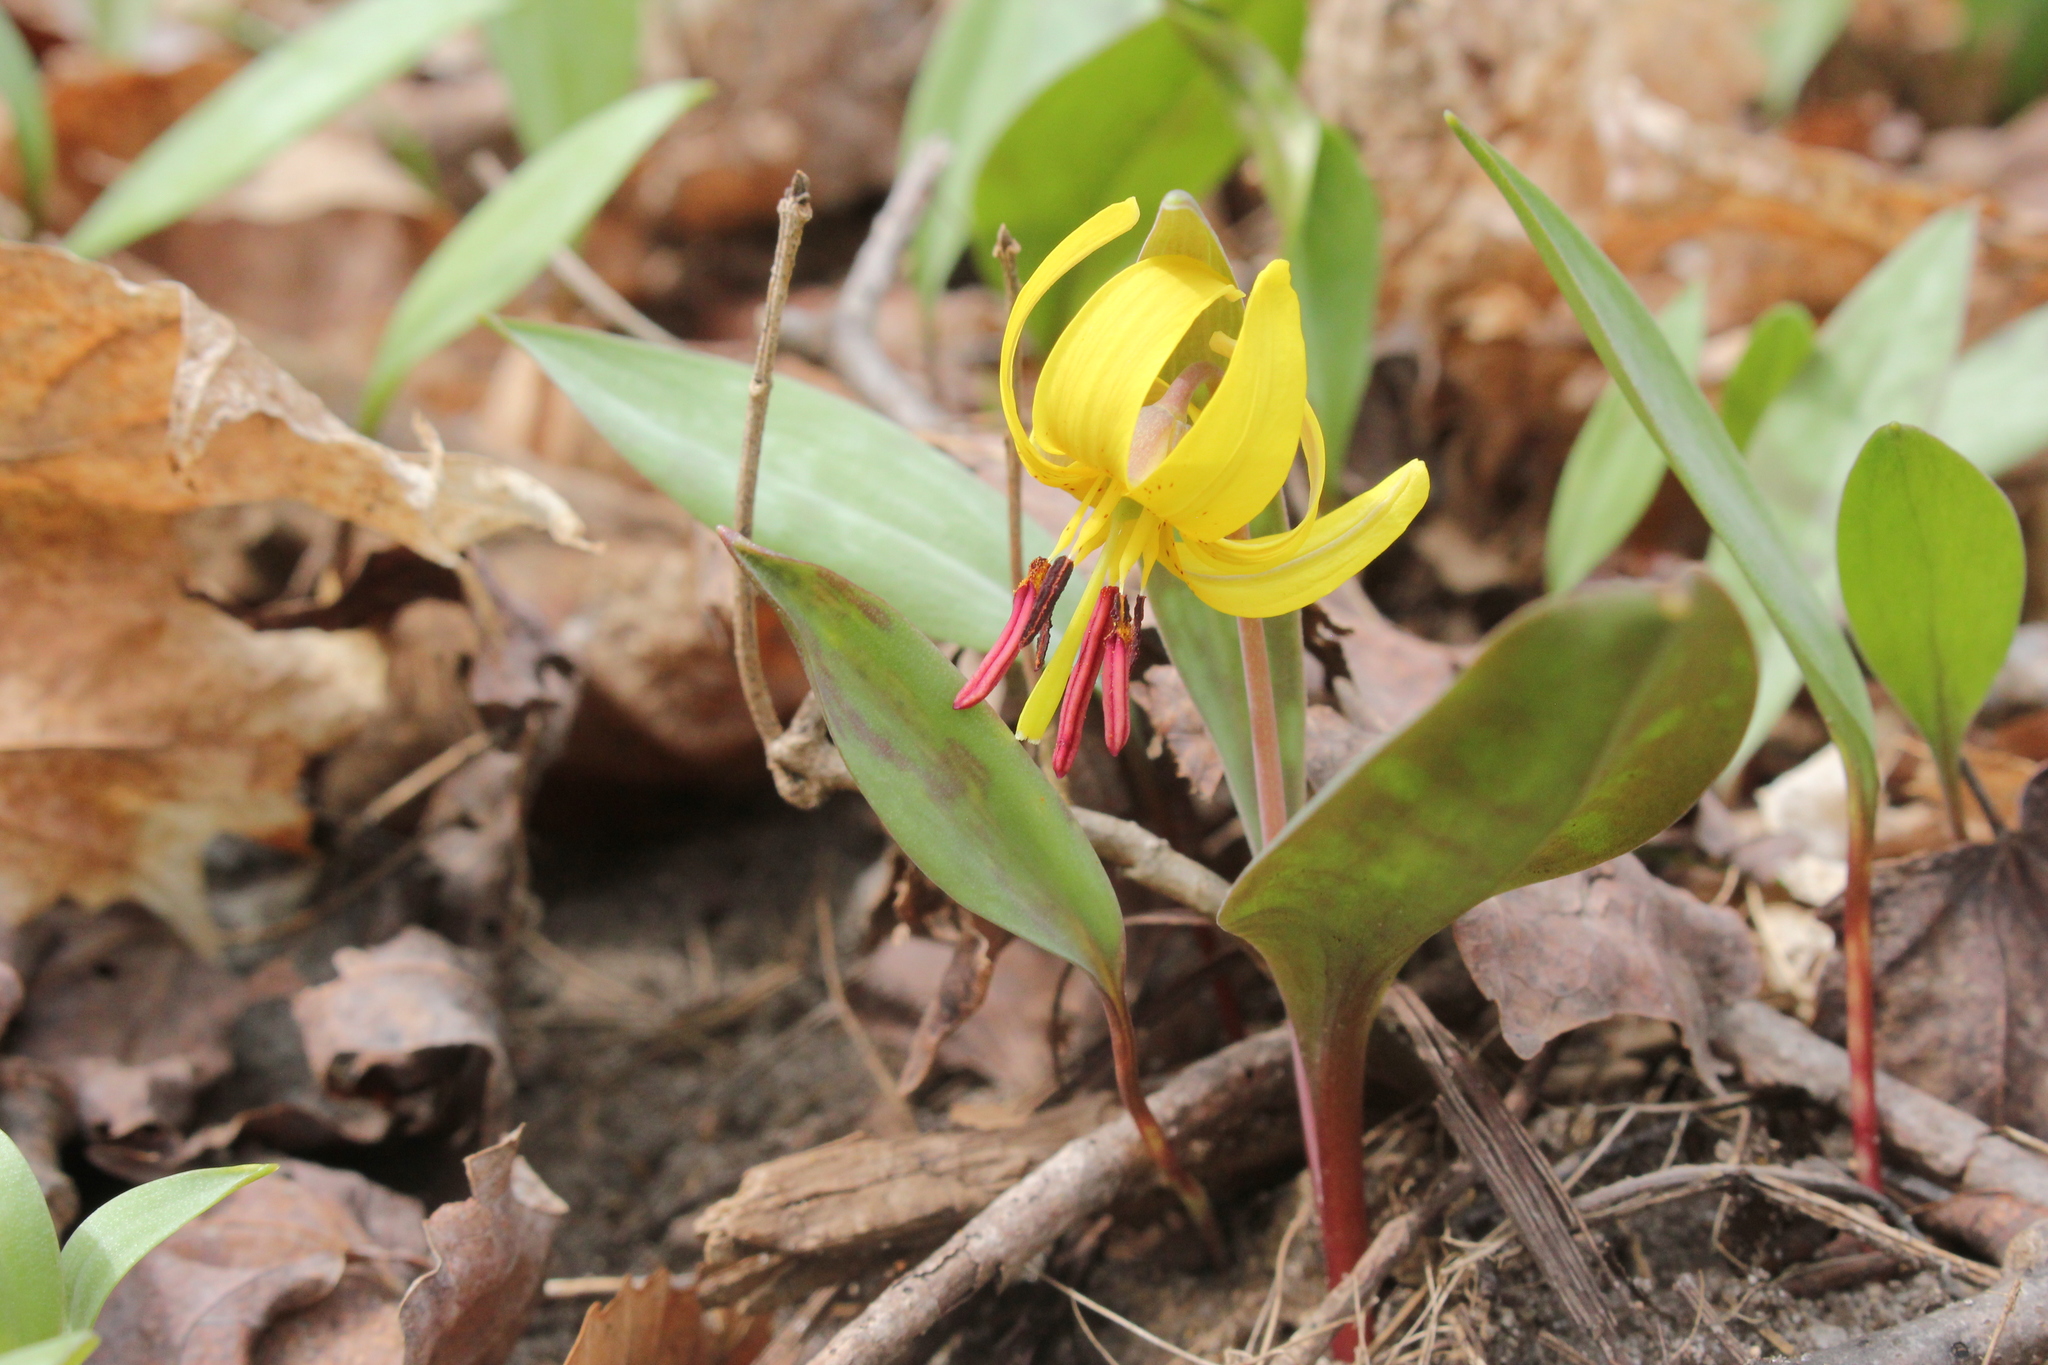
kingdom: Plantae
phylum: Tracheophyta
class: Liliopsida
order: Liliales
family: Liliaceae
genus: Erythronium
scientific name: Erythronium americanum
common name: Yellow adder's-tongue
